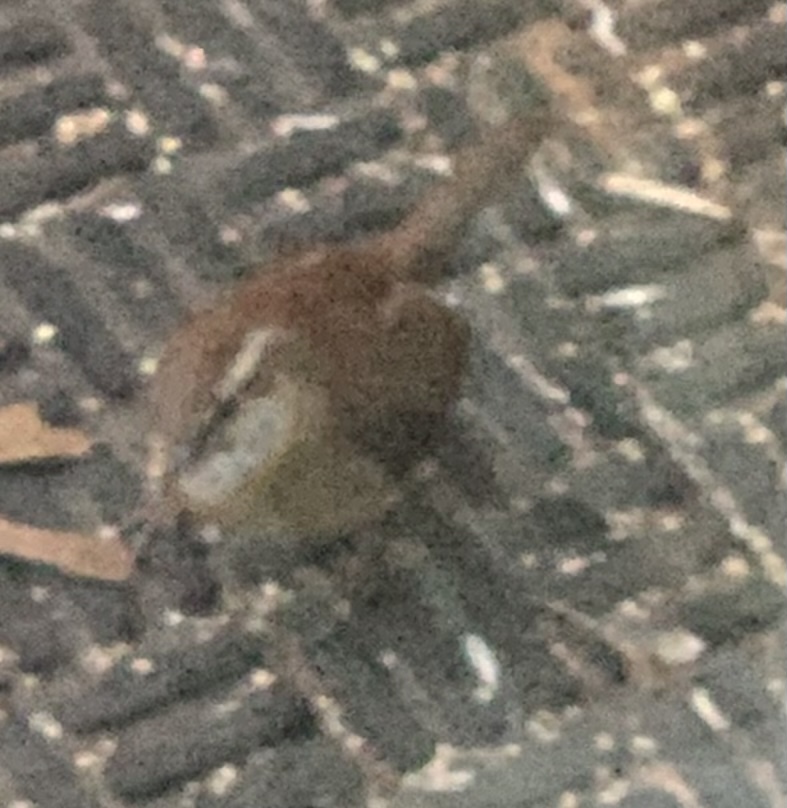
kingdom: Animalia
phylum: Chordata
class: Aves
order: Passeriformes
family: Troglodytidae
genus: Thryothorus
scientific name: Thryothorus ludovicianus
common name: Carolina wren
